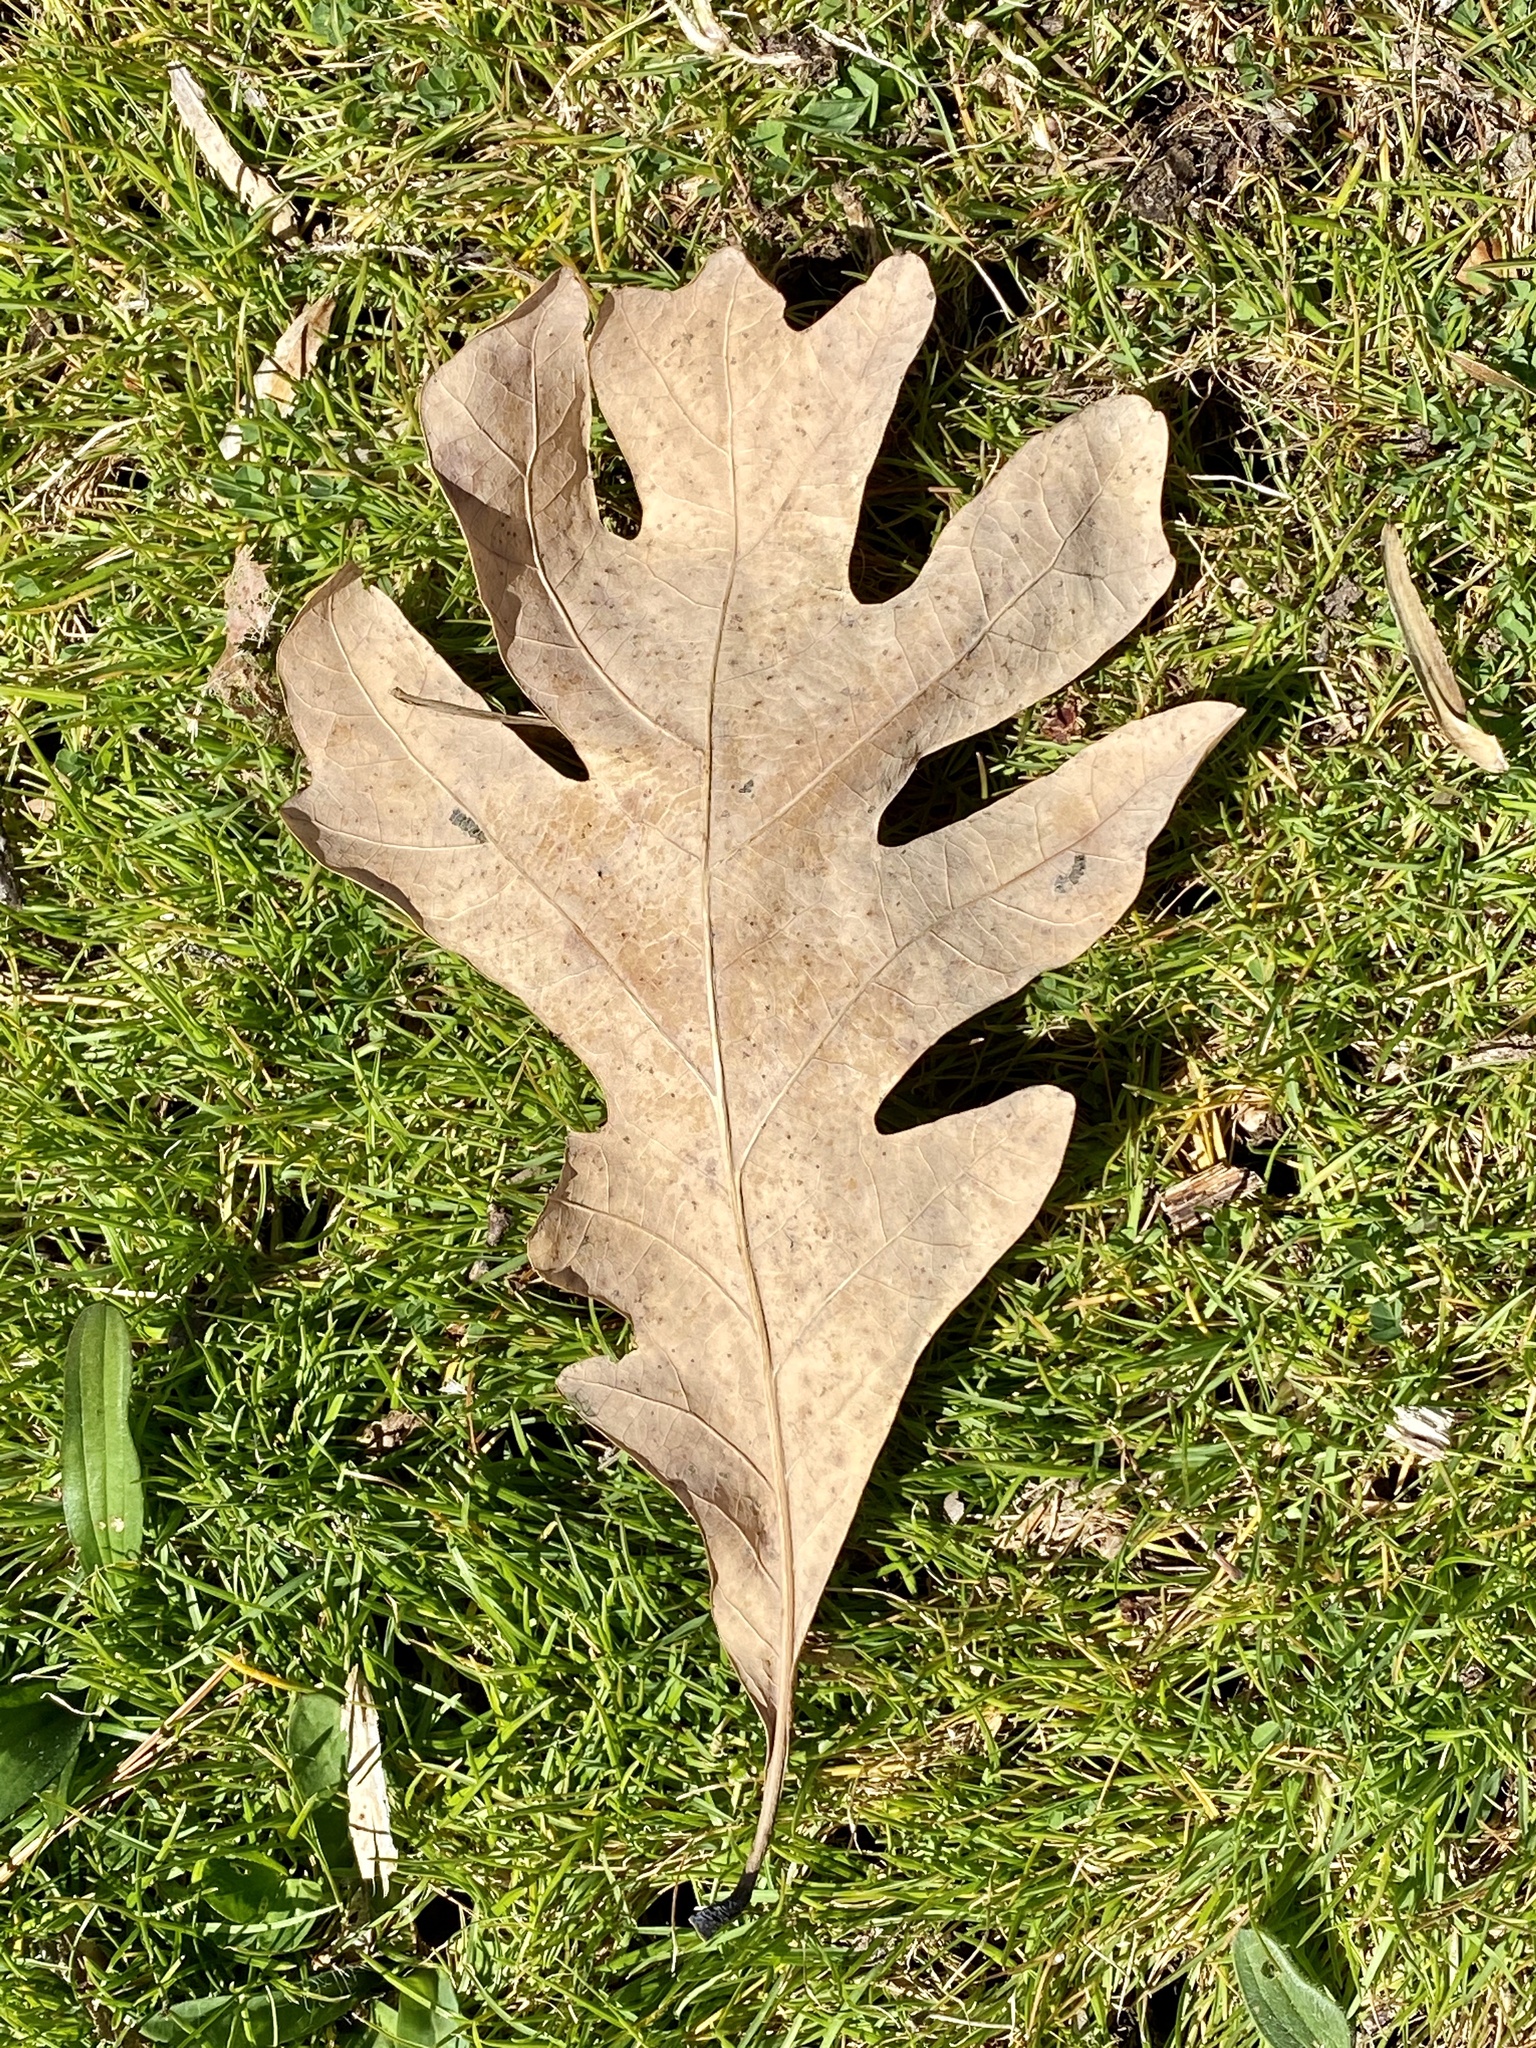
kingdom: Plantae
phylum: Tracheophyta
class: Magnoliopsida
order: Fagales
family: Fagaceae
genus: Quercus
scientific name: Quercus alba
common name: White oak
